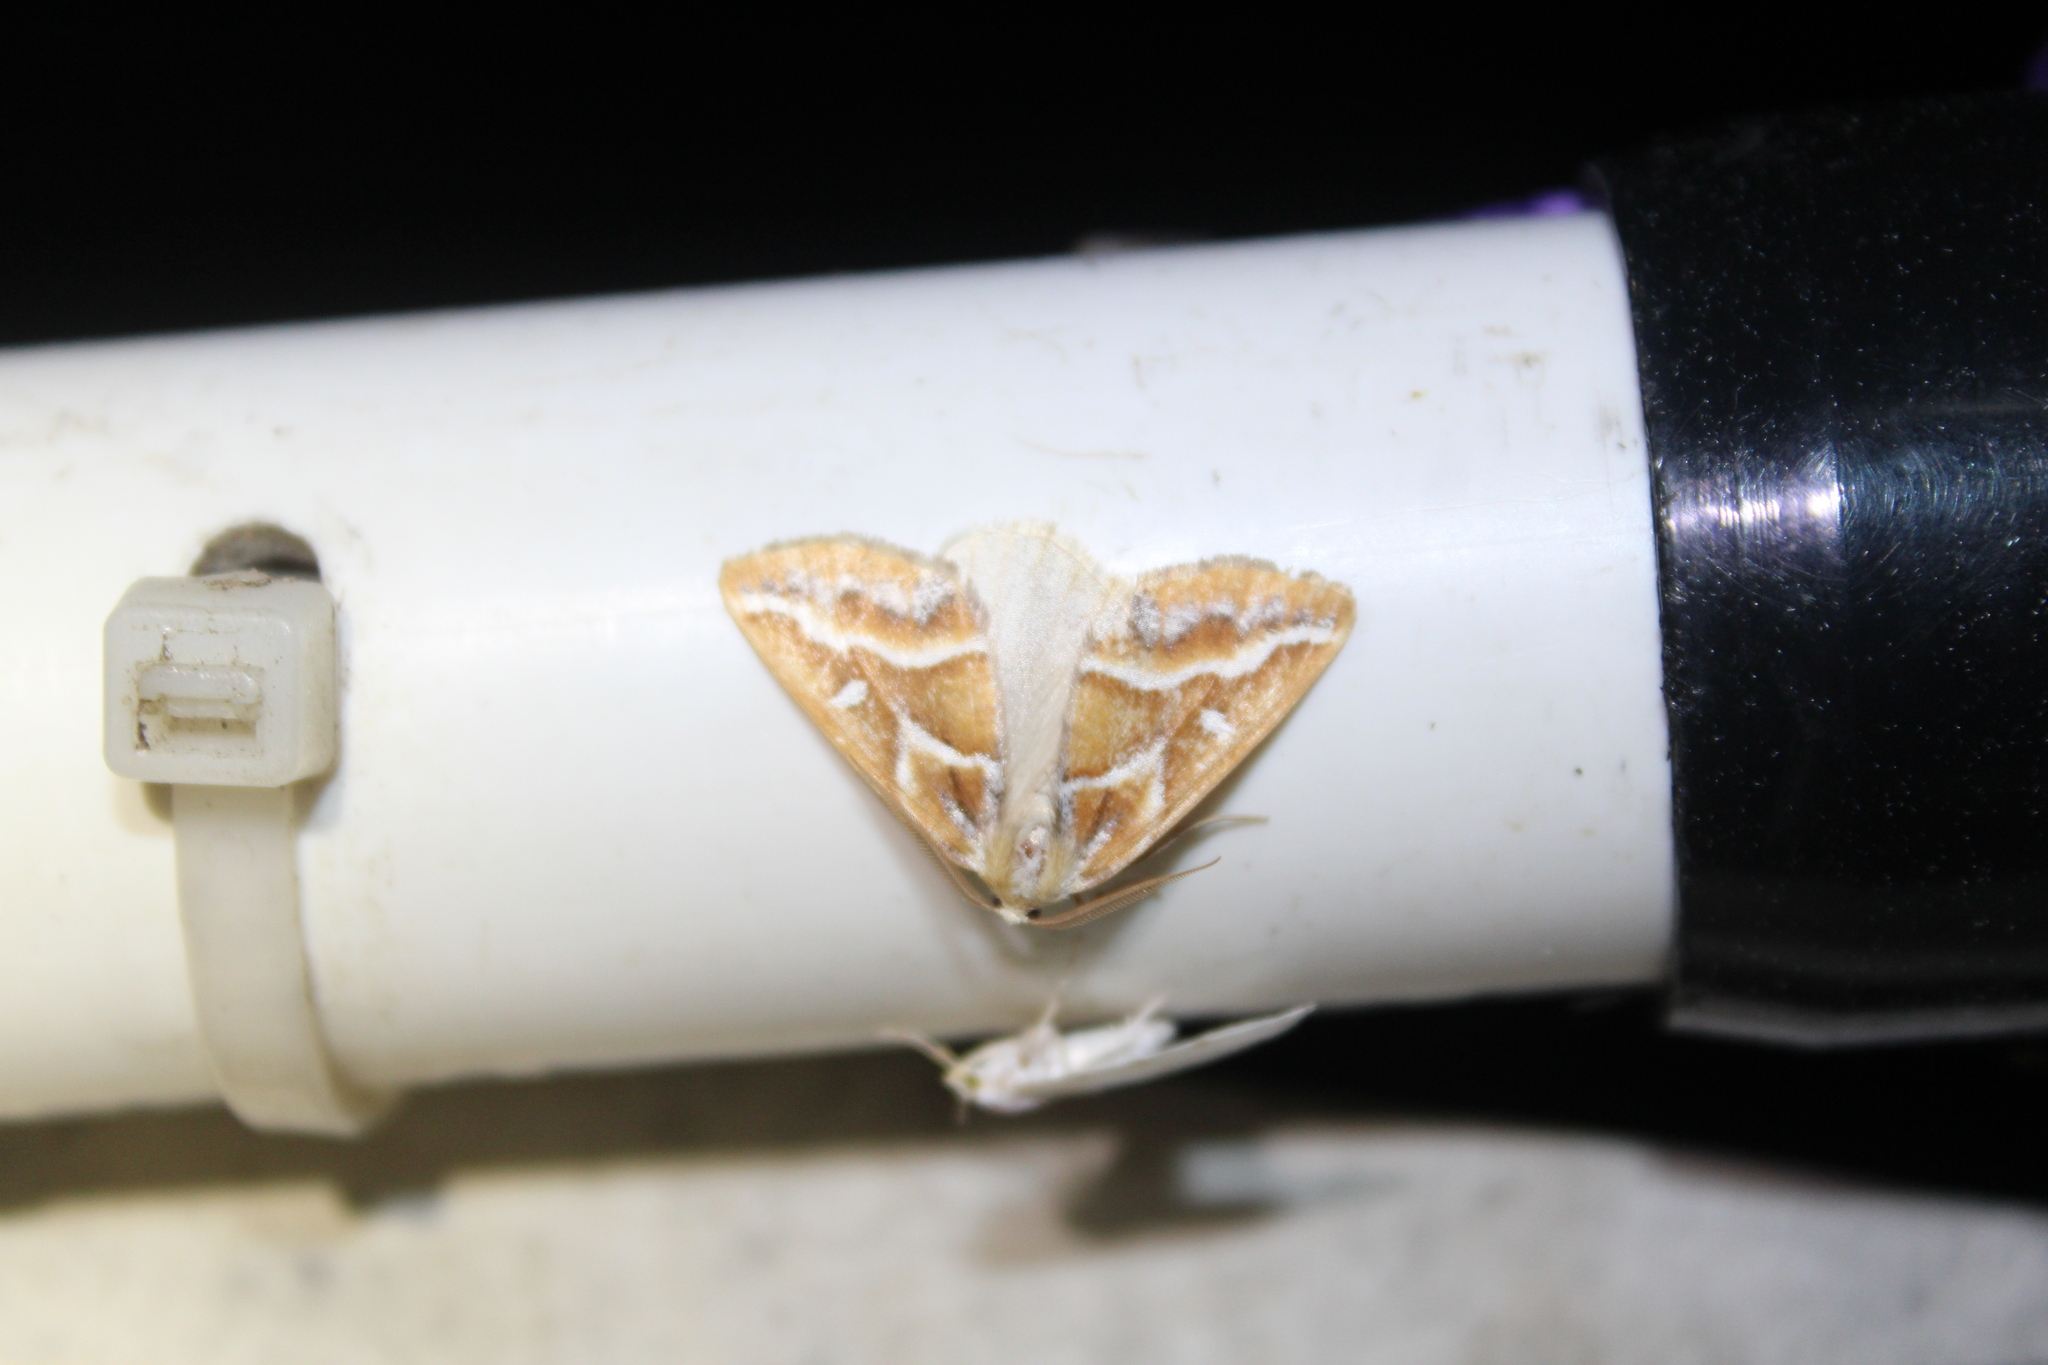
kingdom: Animalia
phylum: Arthropoda
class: Insecta
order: Lepidoptera
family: Geometridae
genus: Caripeta
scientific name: Caripeta angustiorata
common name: Brown pine looper
